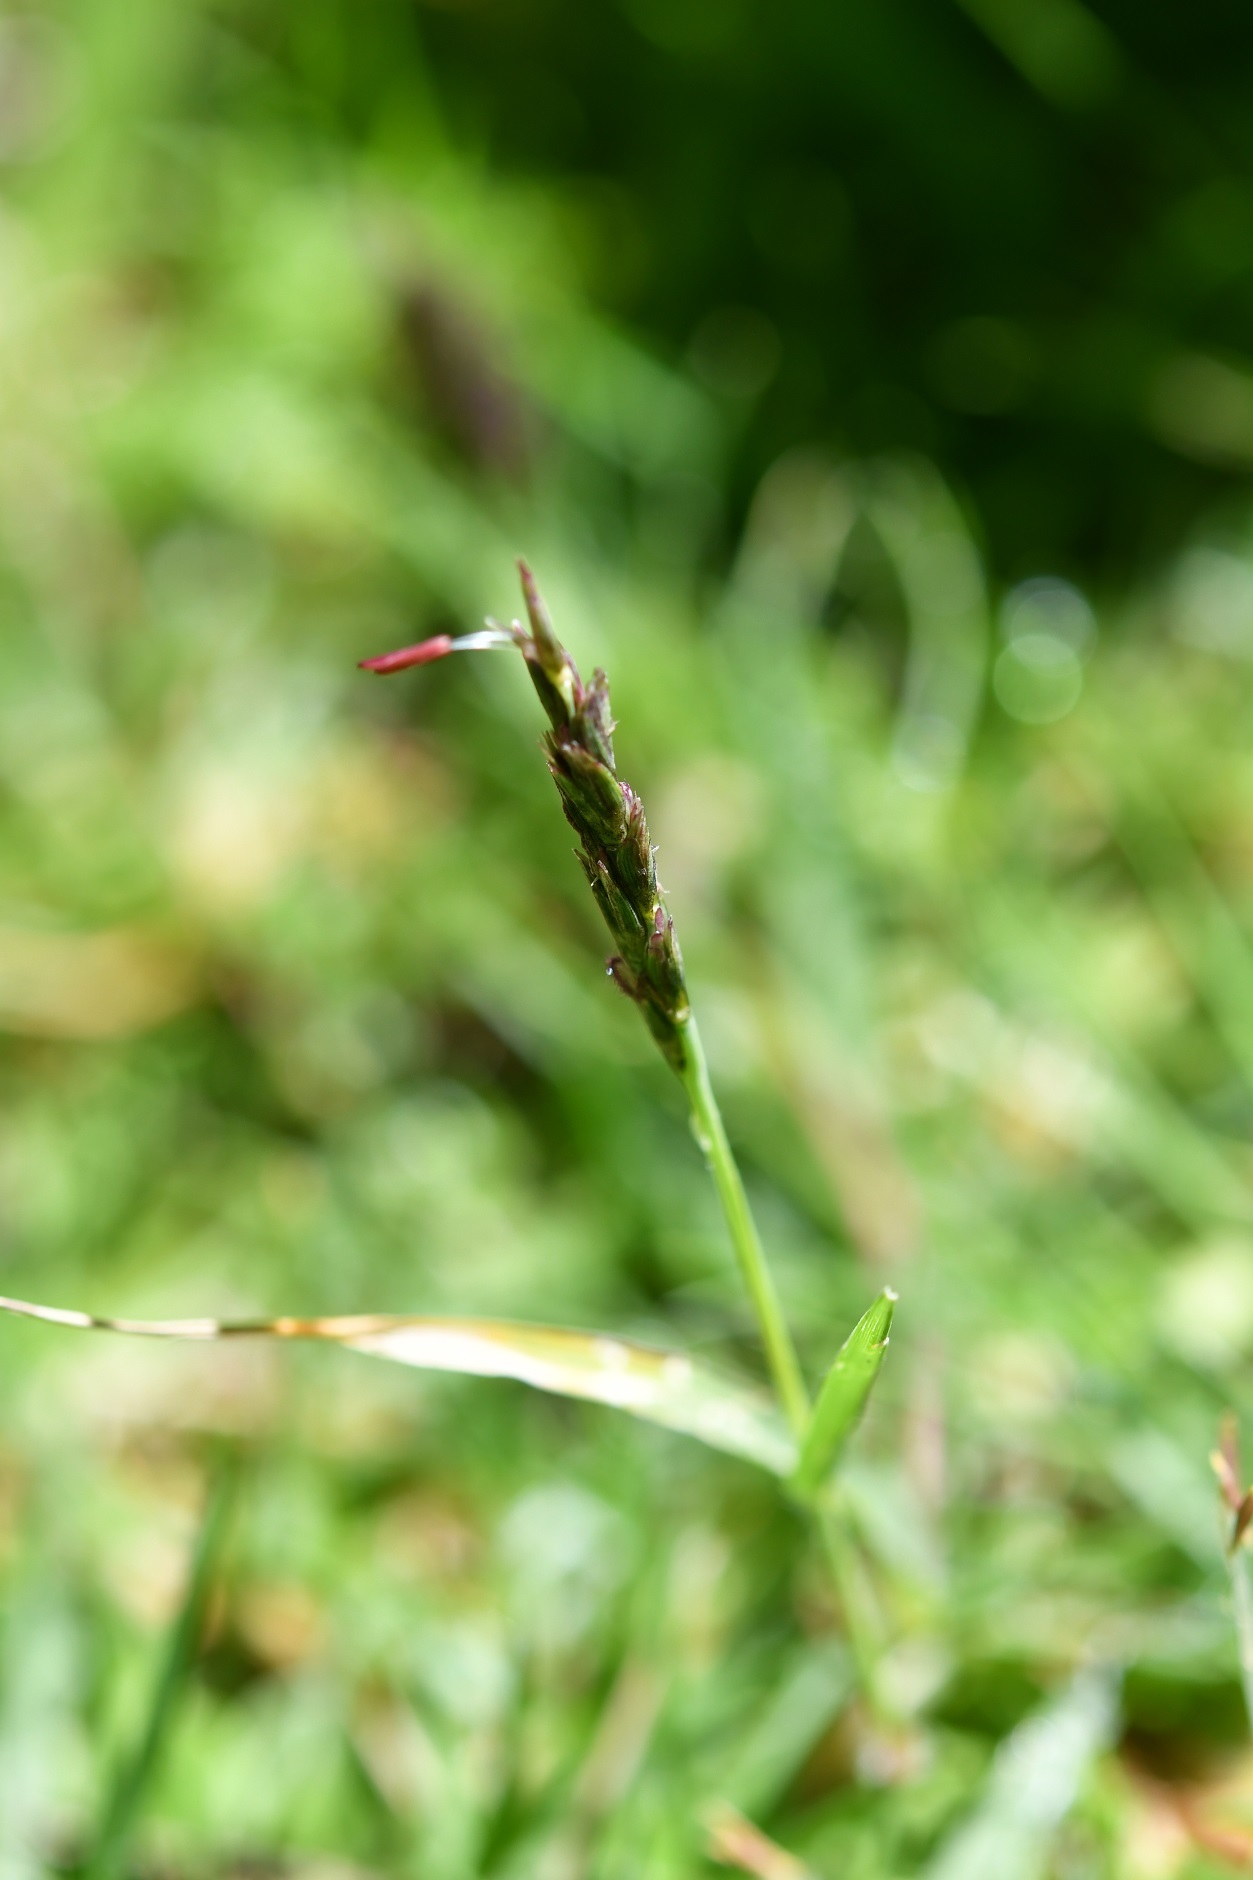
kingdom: Plantae
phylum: Tracheophyta
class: Liliopsida
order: Poales
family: Poaceae
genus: Hilaria
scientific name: Hilaria cenchroides
